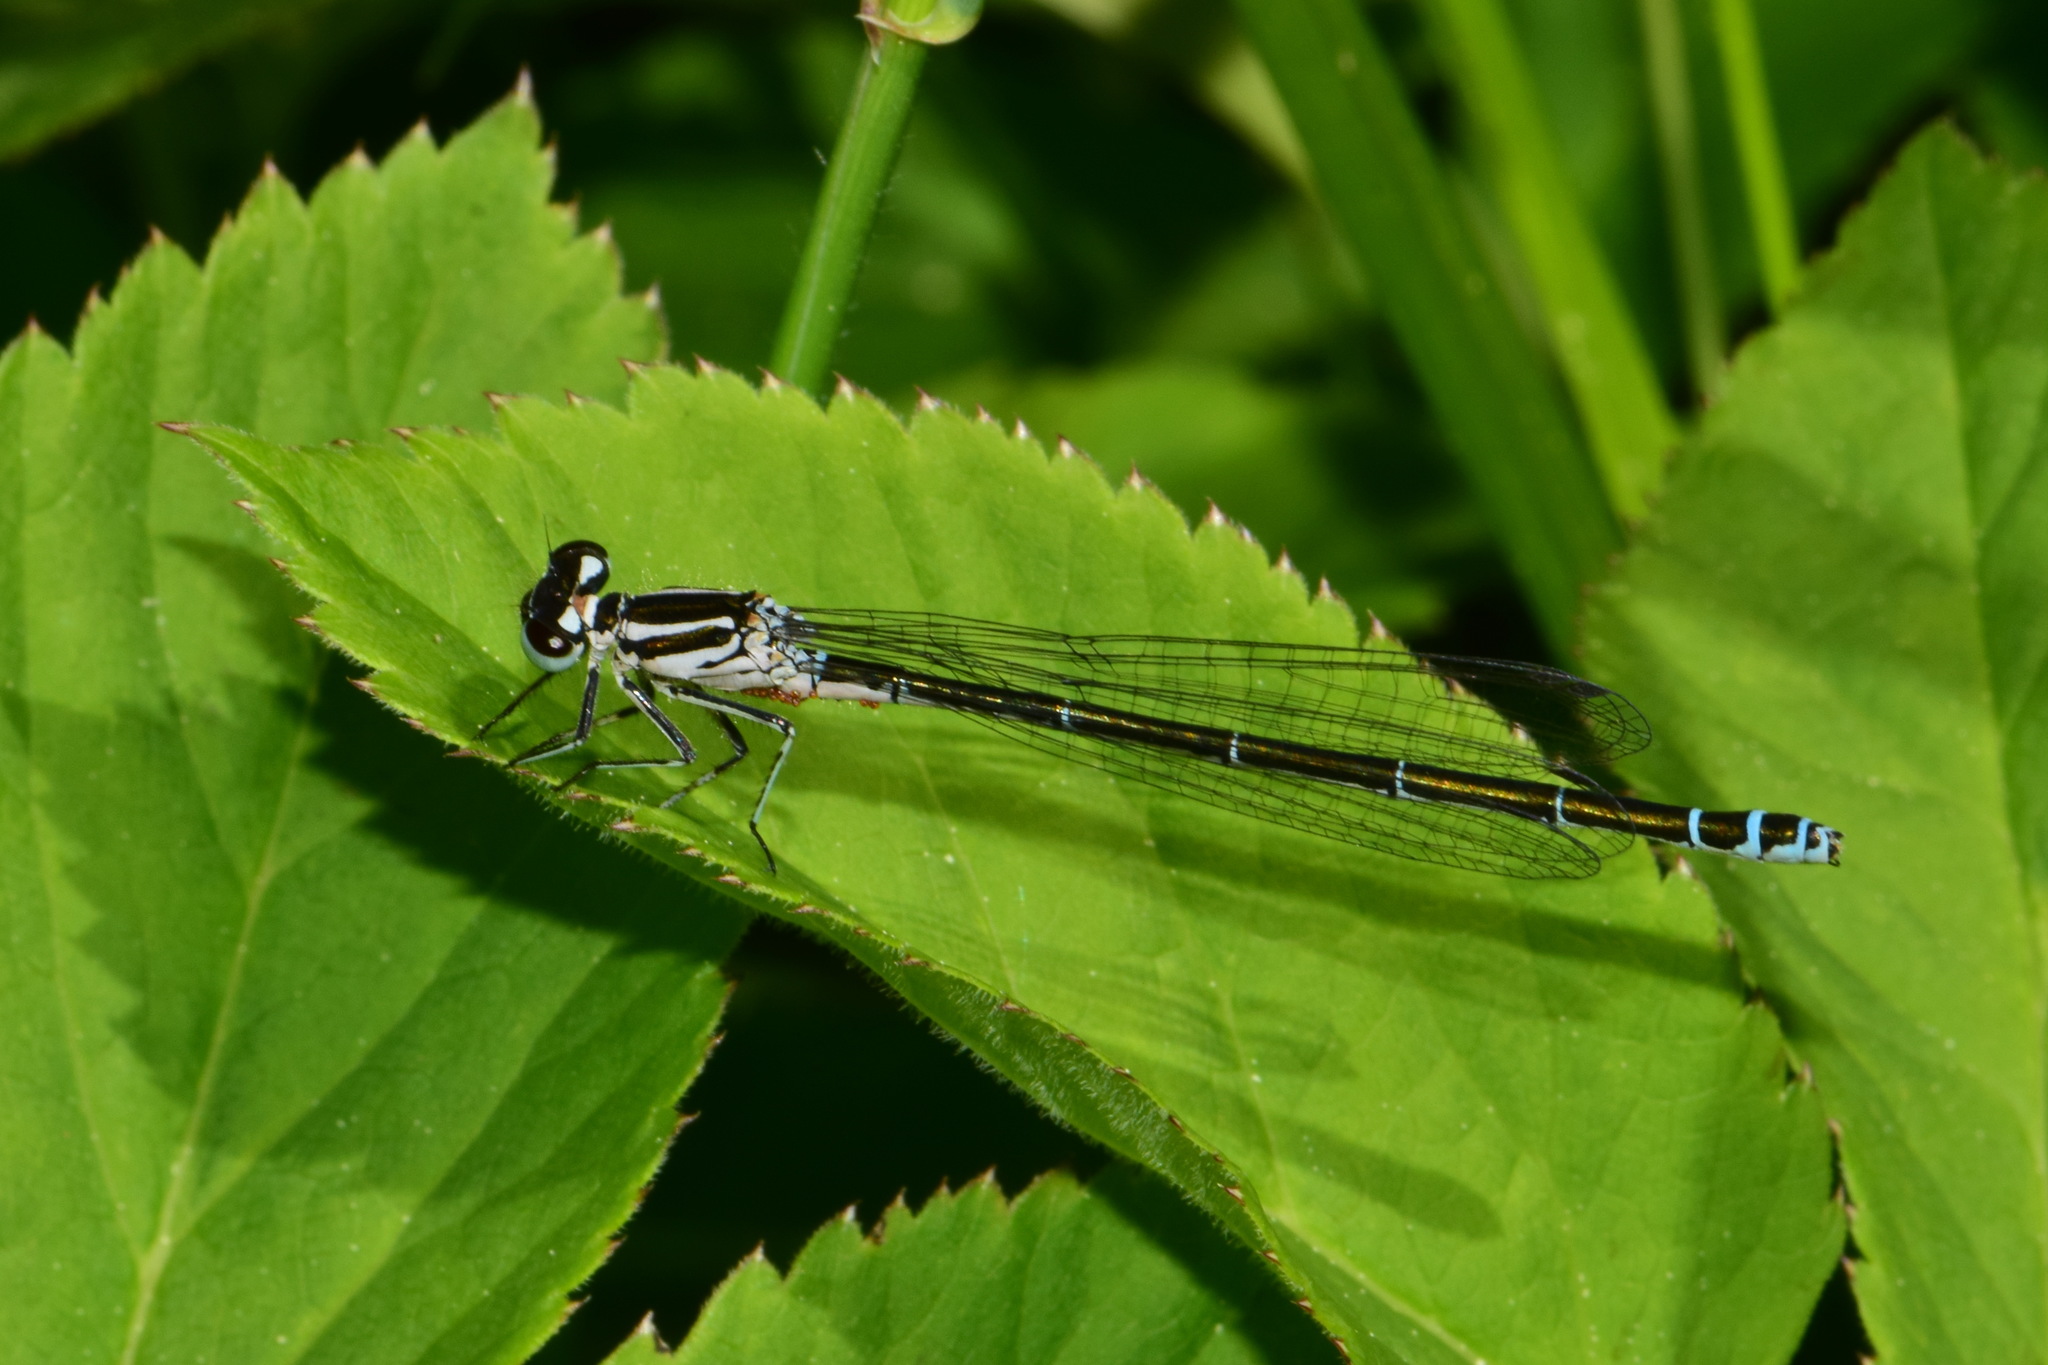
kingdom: Animalia
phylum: Arthropoda
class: Insecta
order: Odonata
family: Coenagrionidae
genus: Coenagrion
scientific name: Coenagrion puella
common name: Azure damselfly
